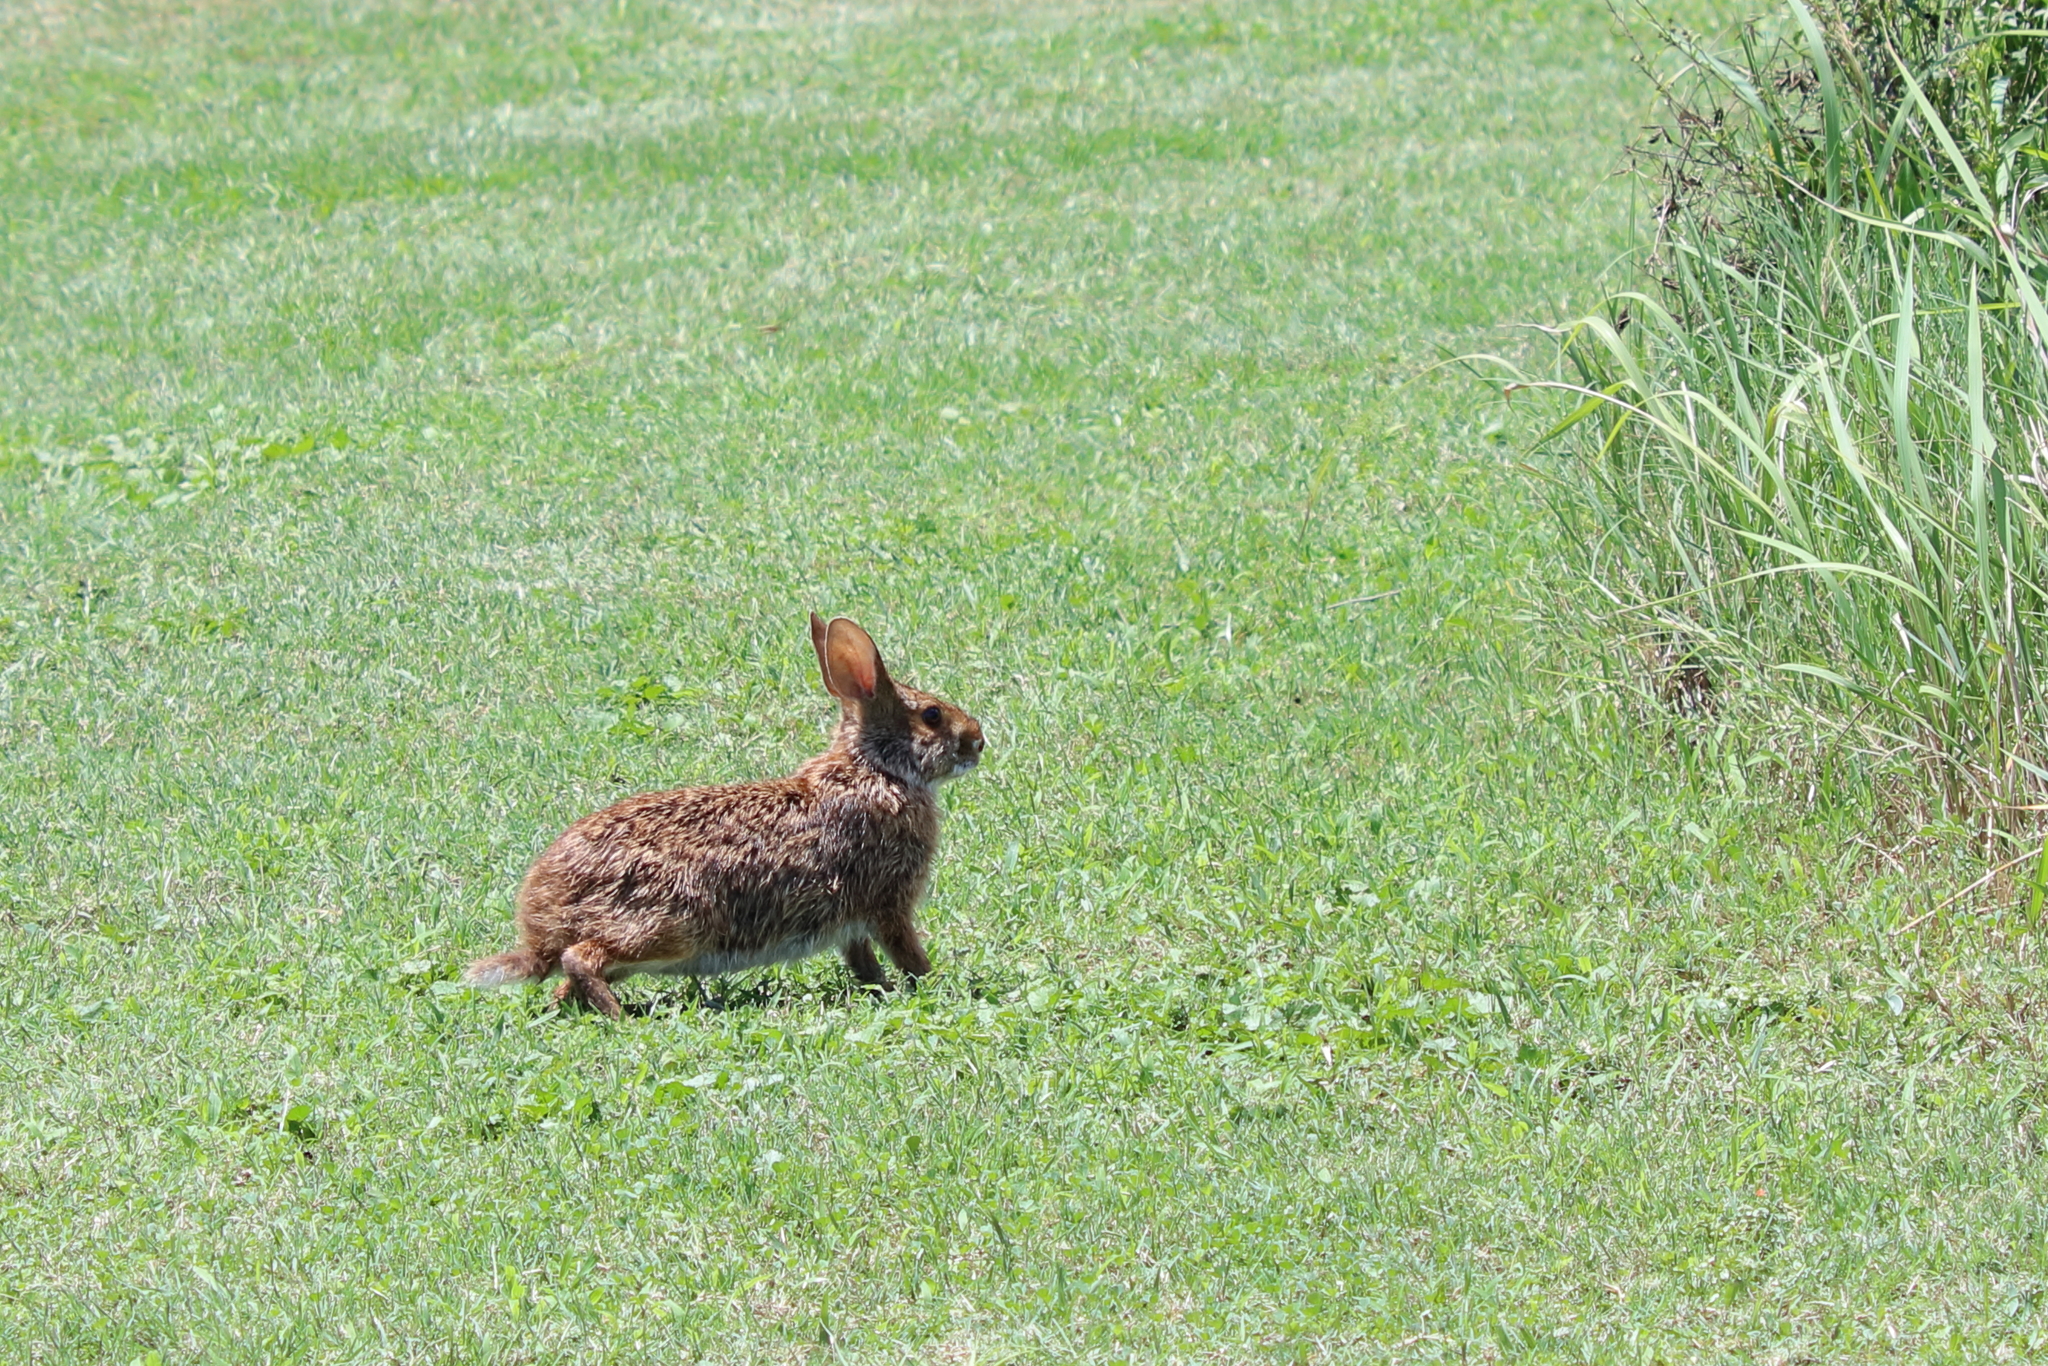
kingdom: Animalia
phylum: Chordata
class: Mammalia
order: Lagomorpha
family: Leporidae
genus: Sylvilagus
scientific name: Sylvilagus aquaticus
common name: Swamp rabbit
